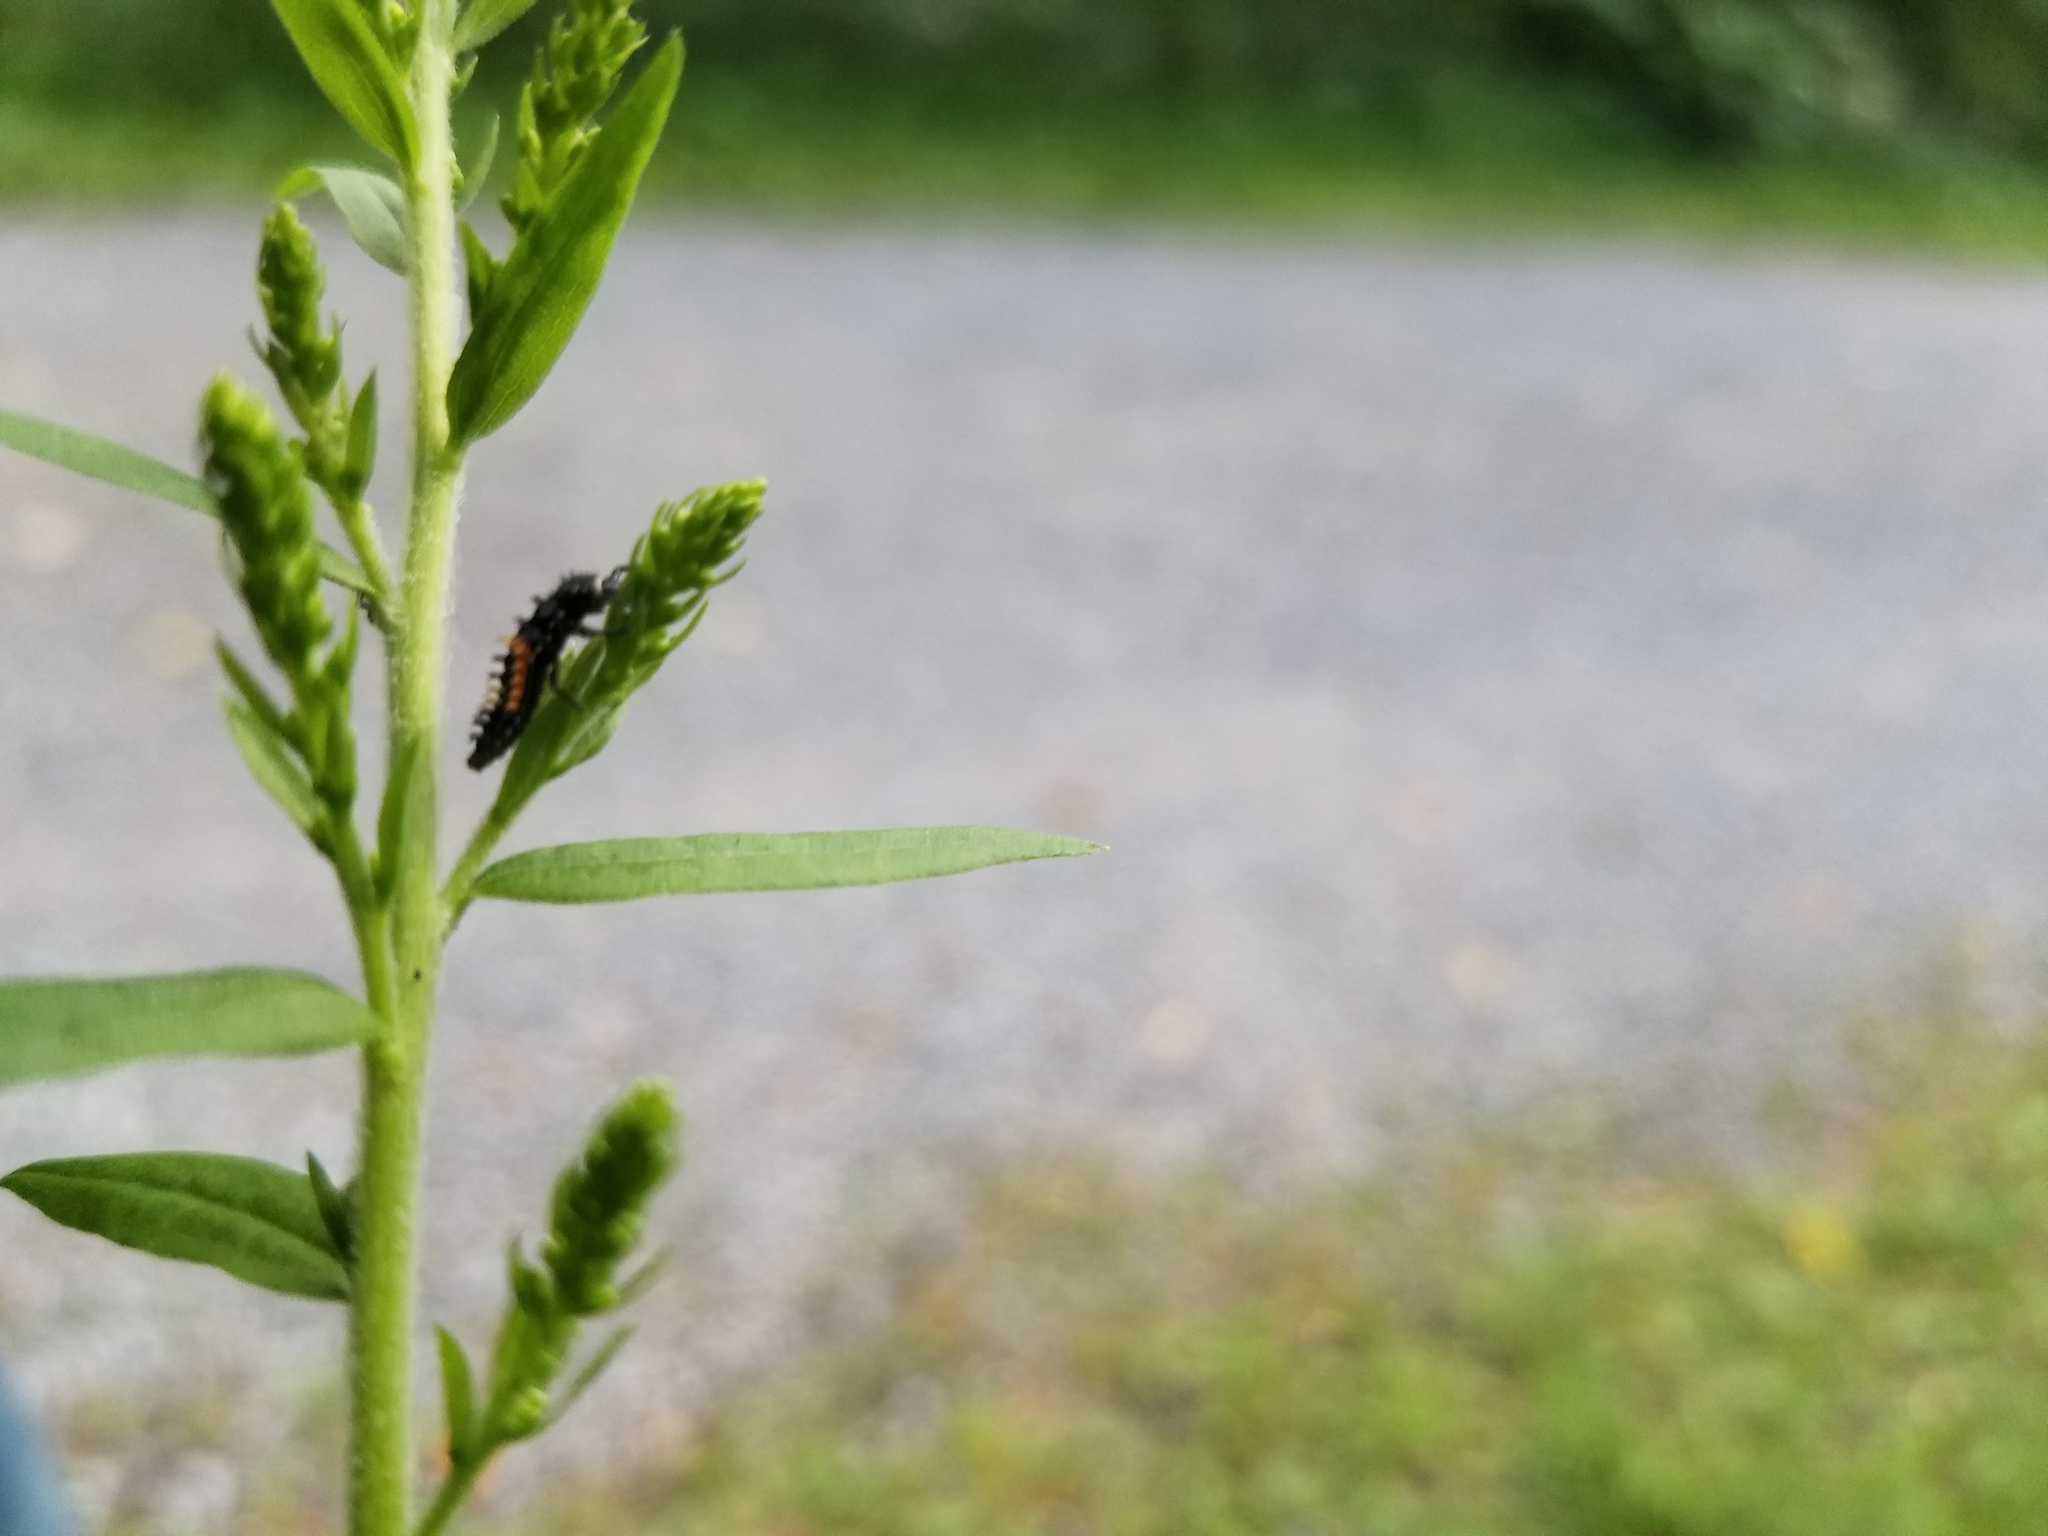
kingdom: Animalia
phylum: Arthropoda
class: Insecta
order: Coleoptera
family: Coccinellidae
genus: Harmonia
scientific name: Harmonia axyridis
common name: Harlequin ladybird
